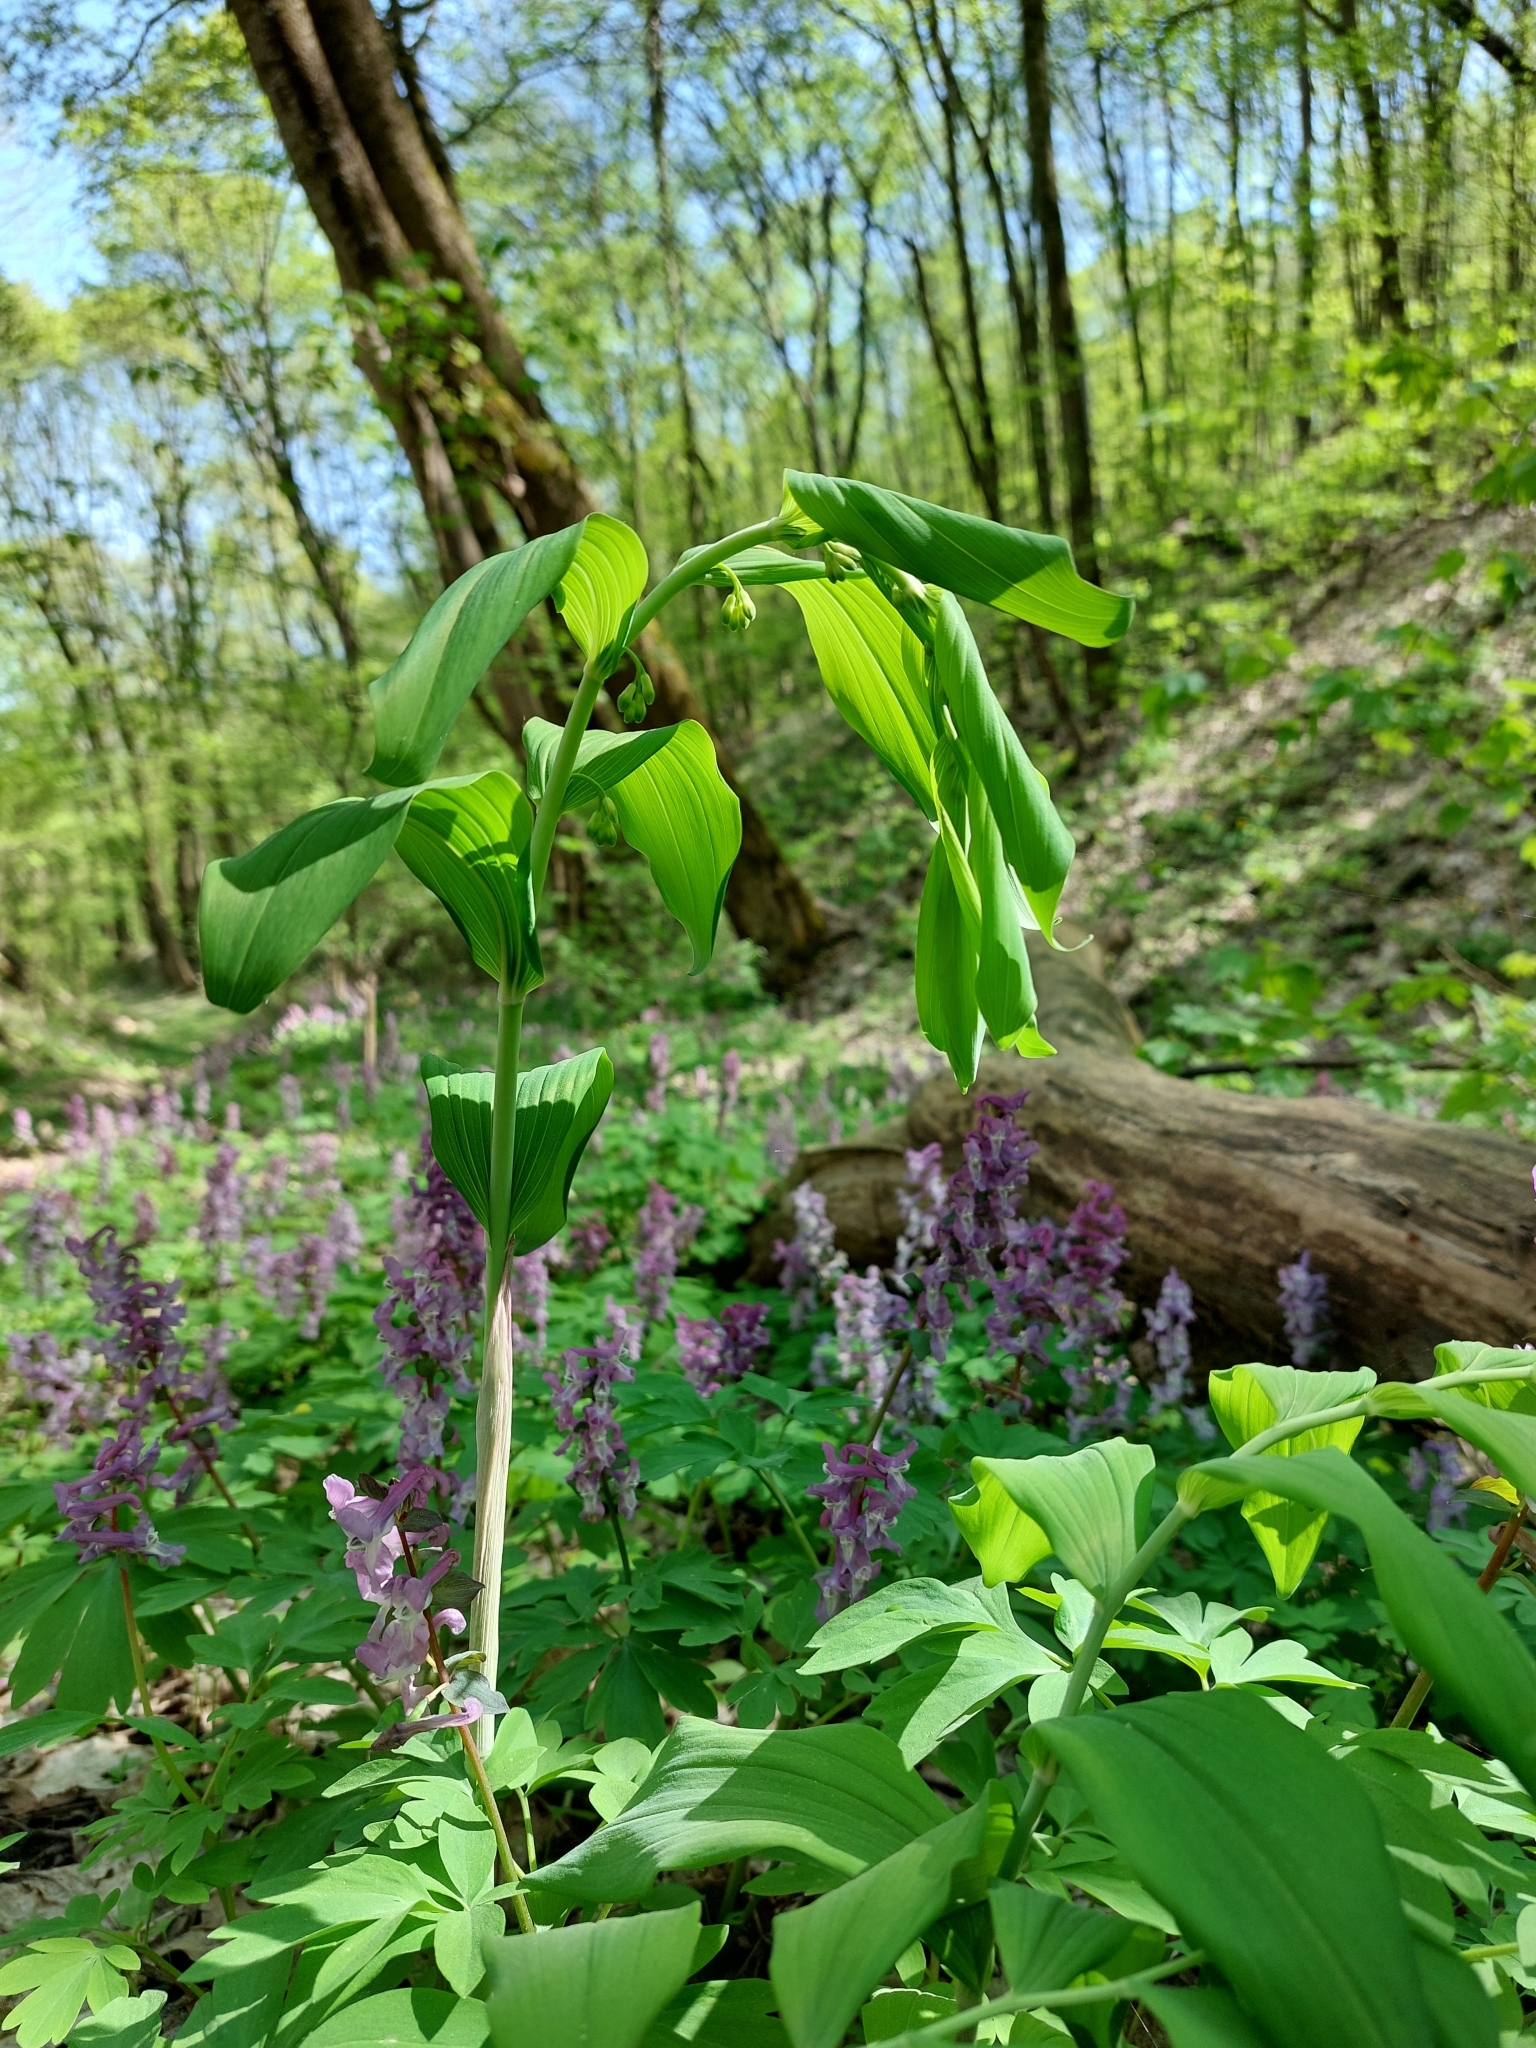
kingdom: Plantae
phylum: Tracheophyta
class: Liliopsida
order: Asparagales
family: Asparagaceae
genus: Polygonatum
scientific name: Polygonatum multiflorum
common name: Solomon's-seal
